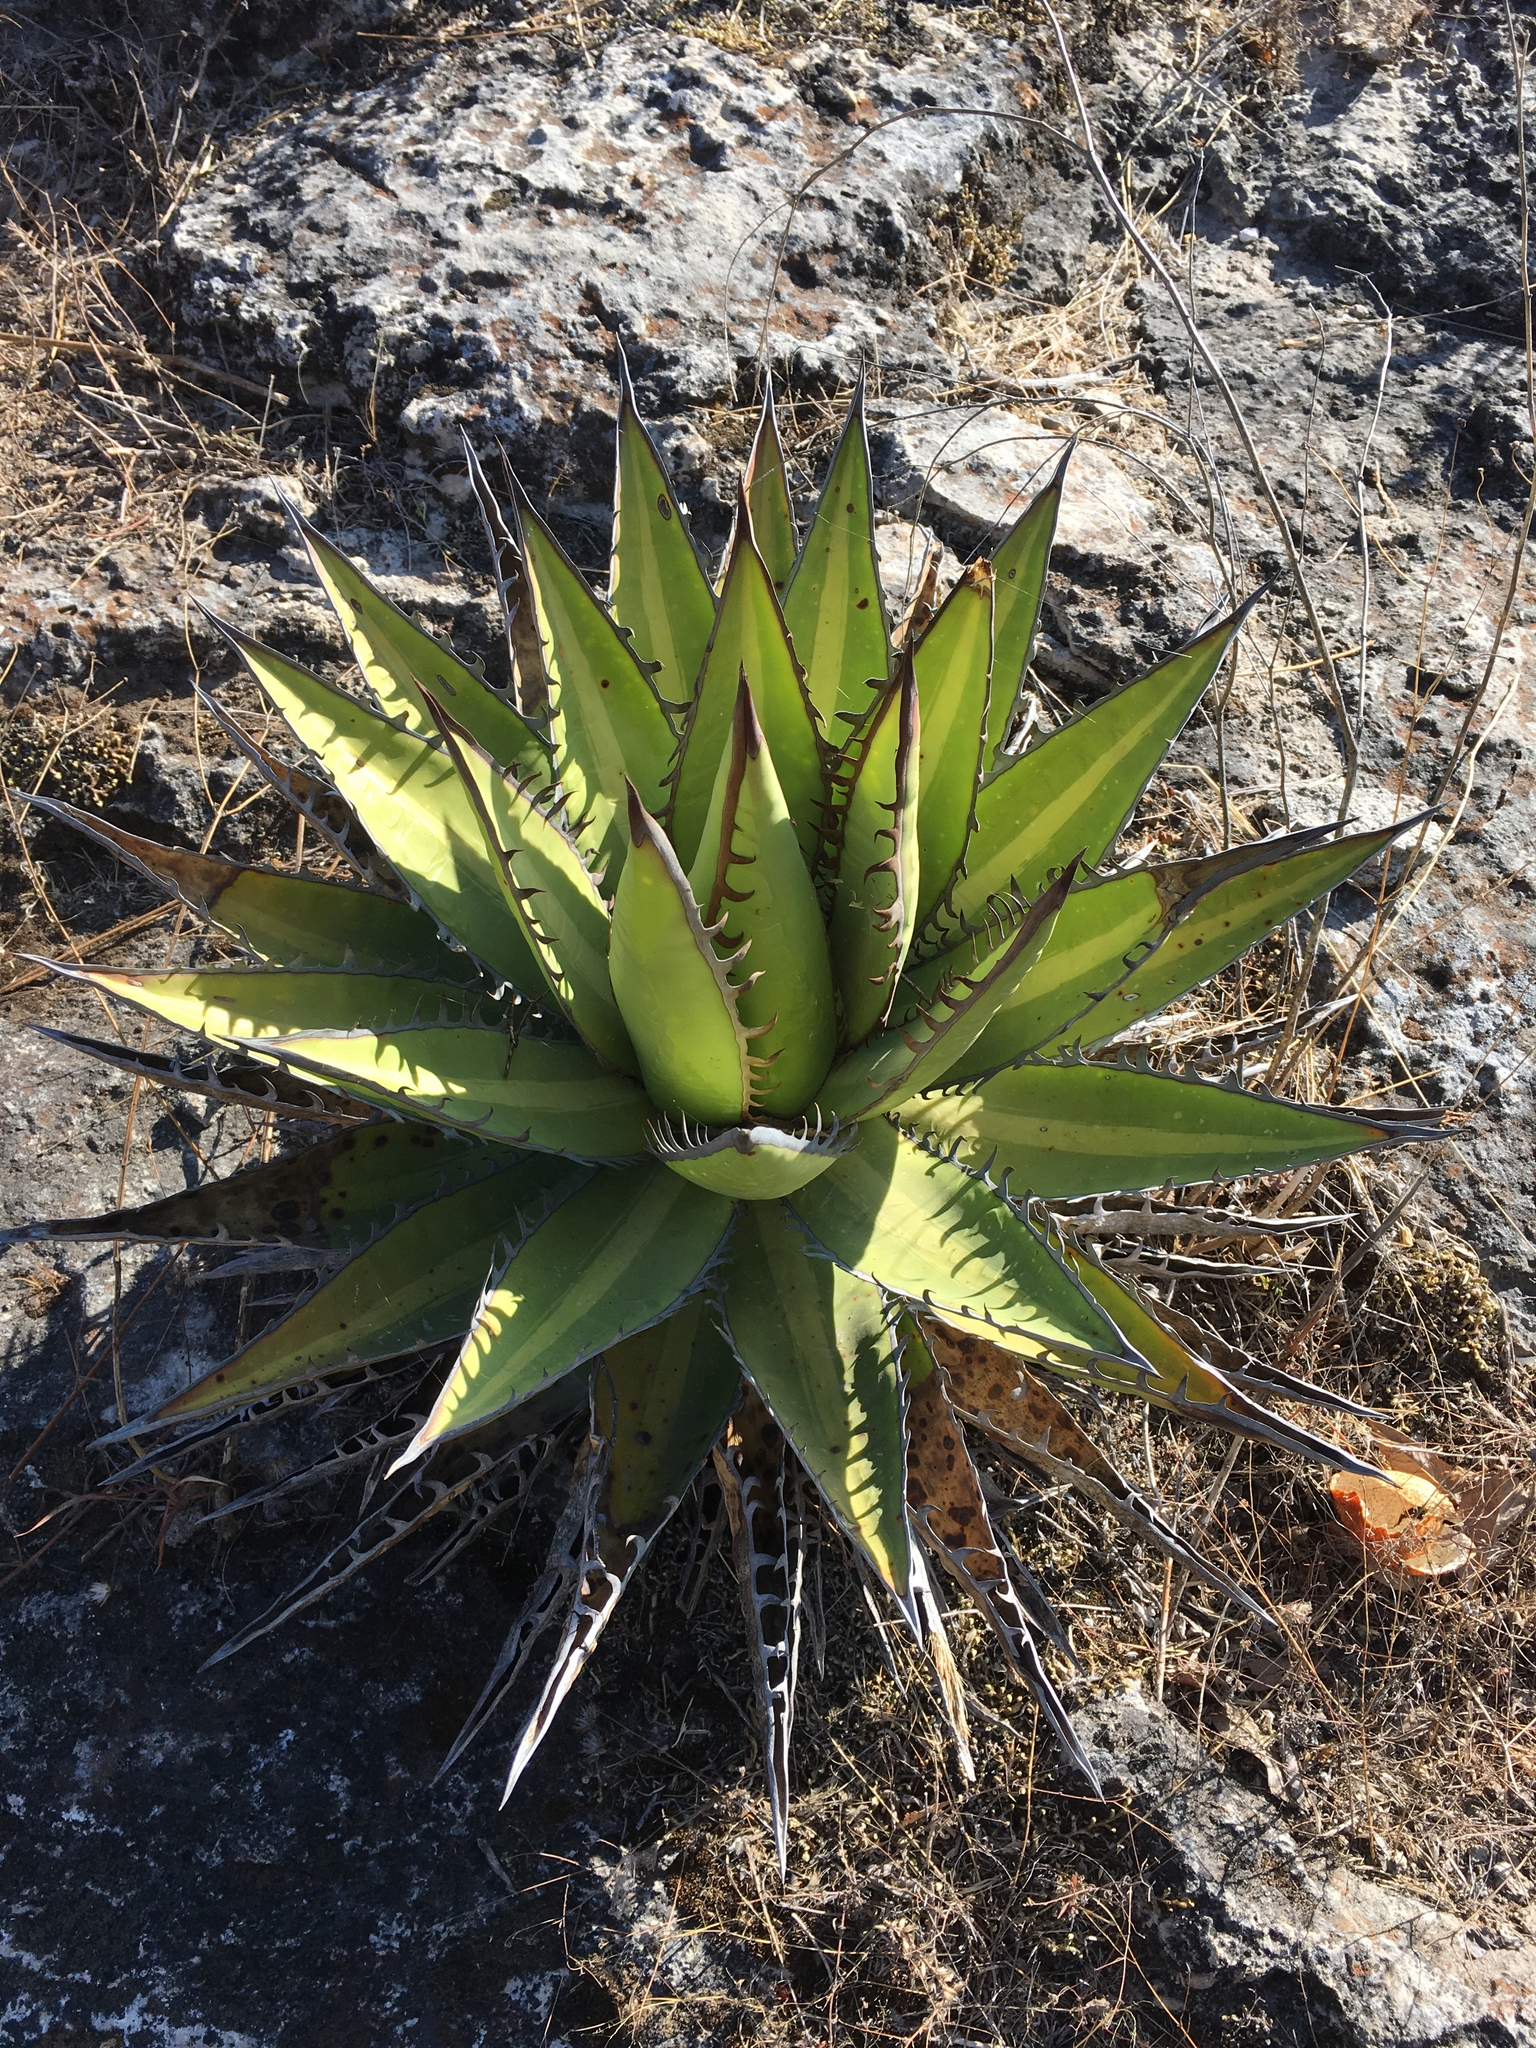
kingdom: Plantae
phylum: Tracheophyta
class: Liliopsida
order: Asparagales
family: Asparagaceae
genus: Agave
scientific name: Agave kerchovei
